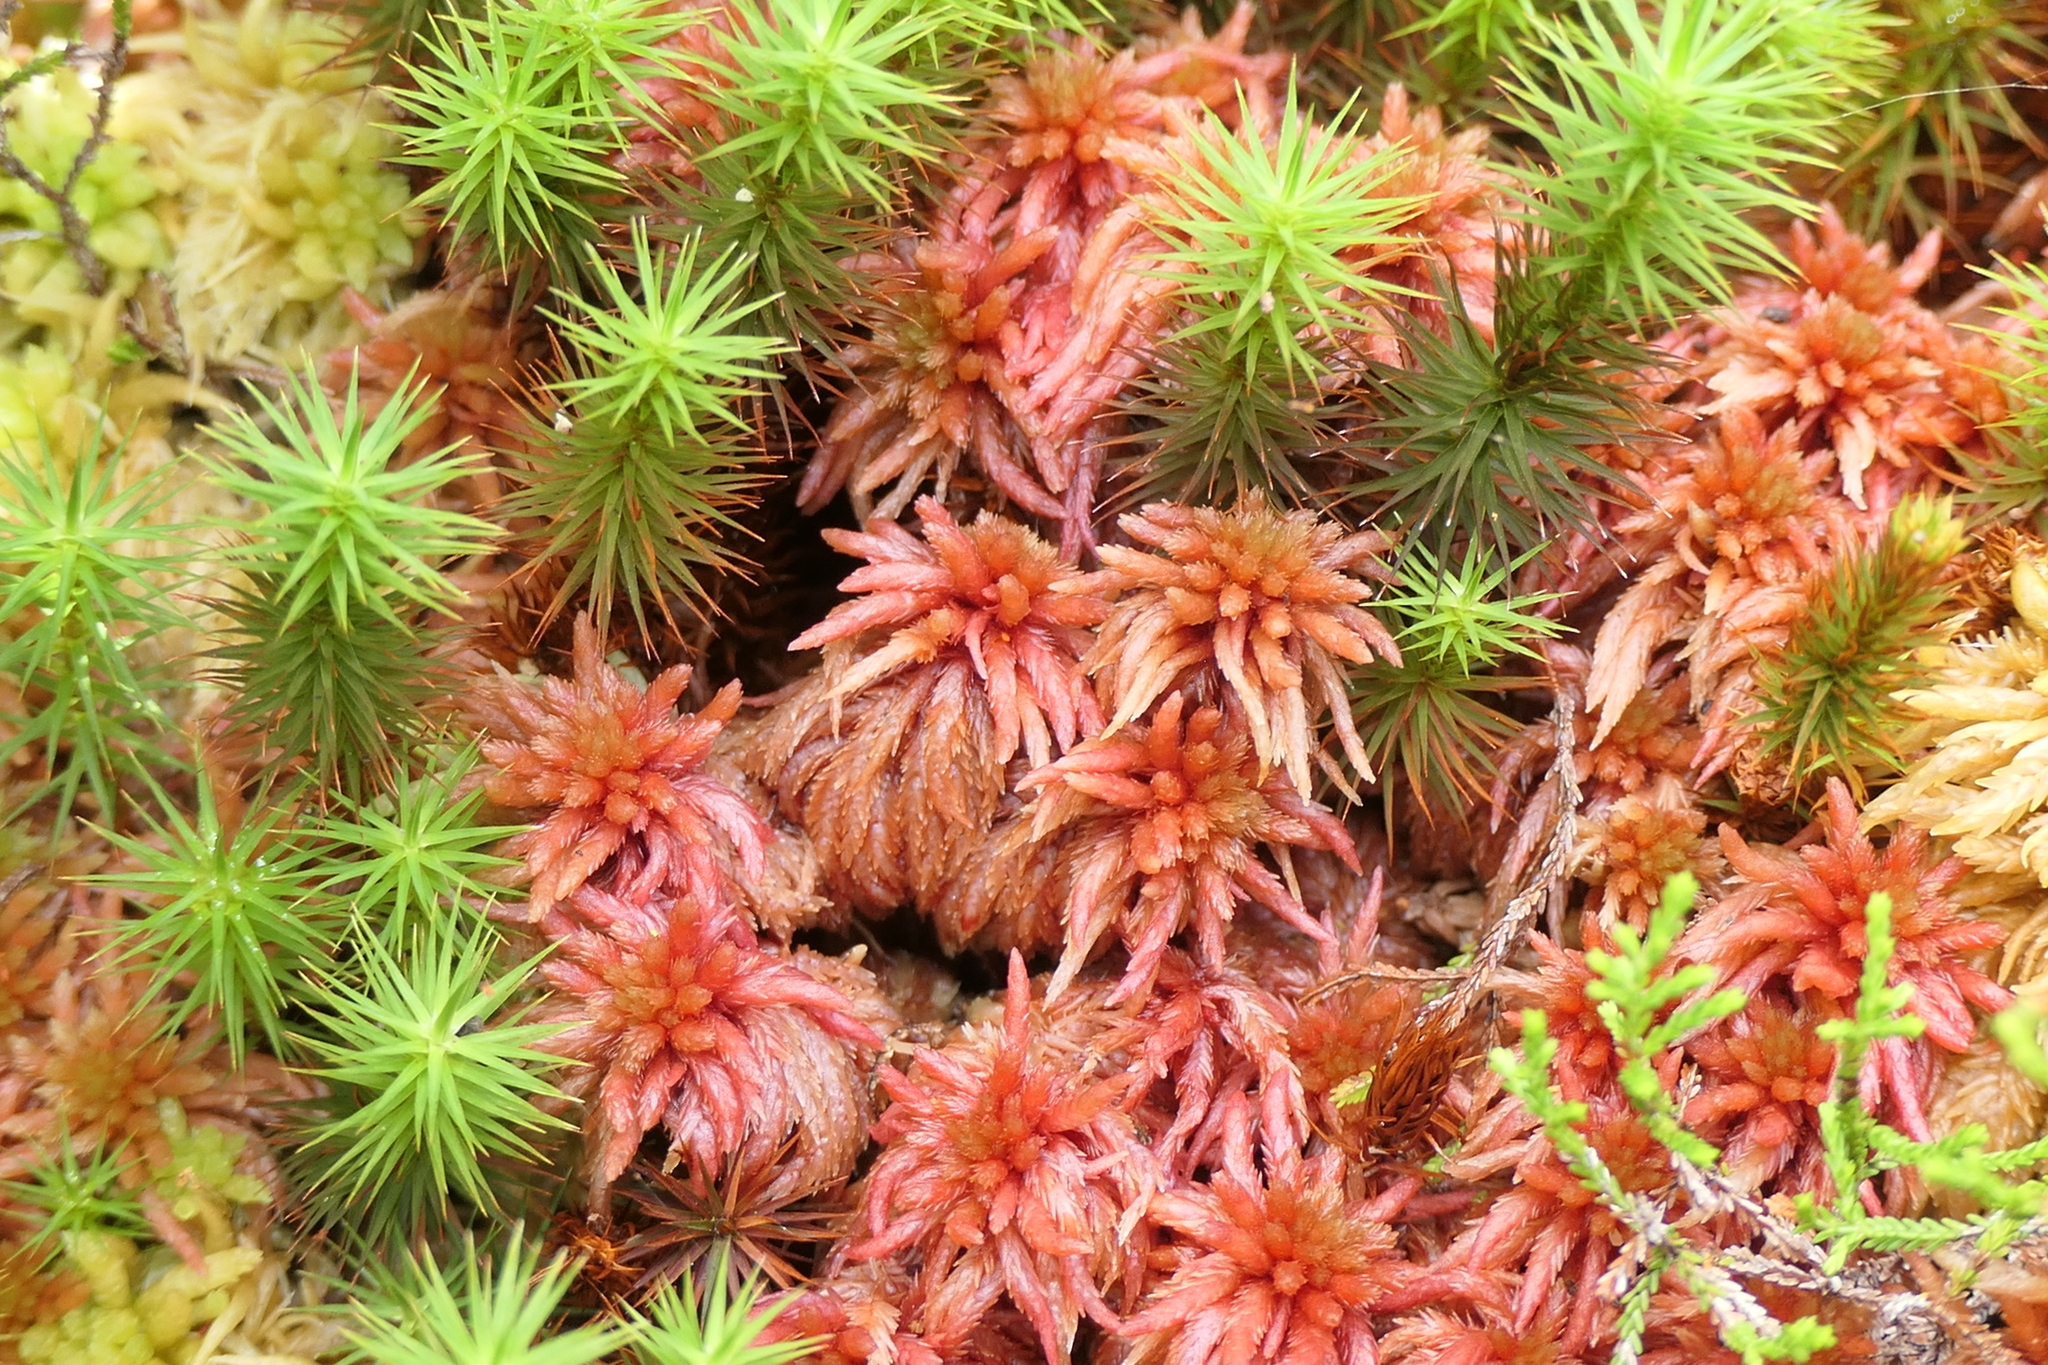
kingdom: Plantae
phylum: Bryophyta
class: Sphagnopsida
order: Sphagnales
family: Sphagnaceae
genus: Sphagnum
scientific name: Sphagnum subnitens
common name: Lustrous bog-moss
